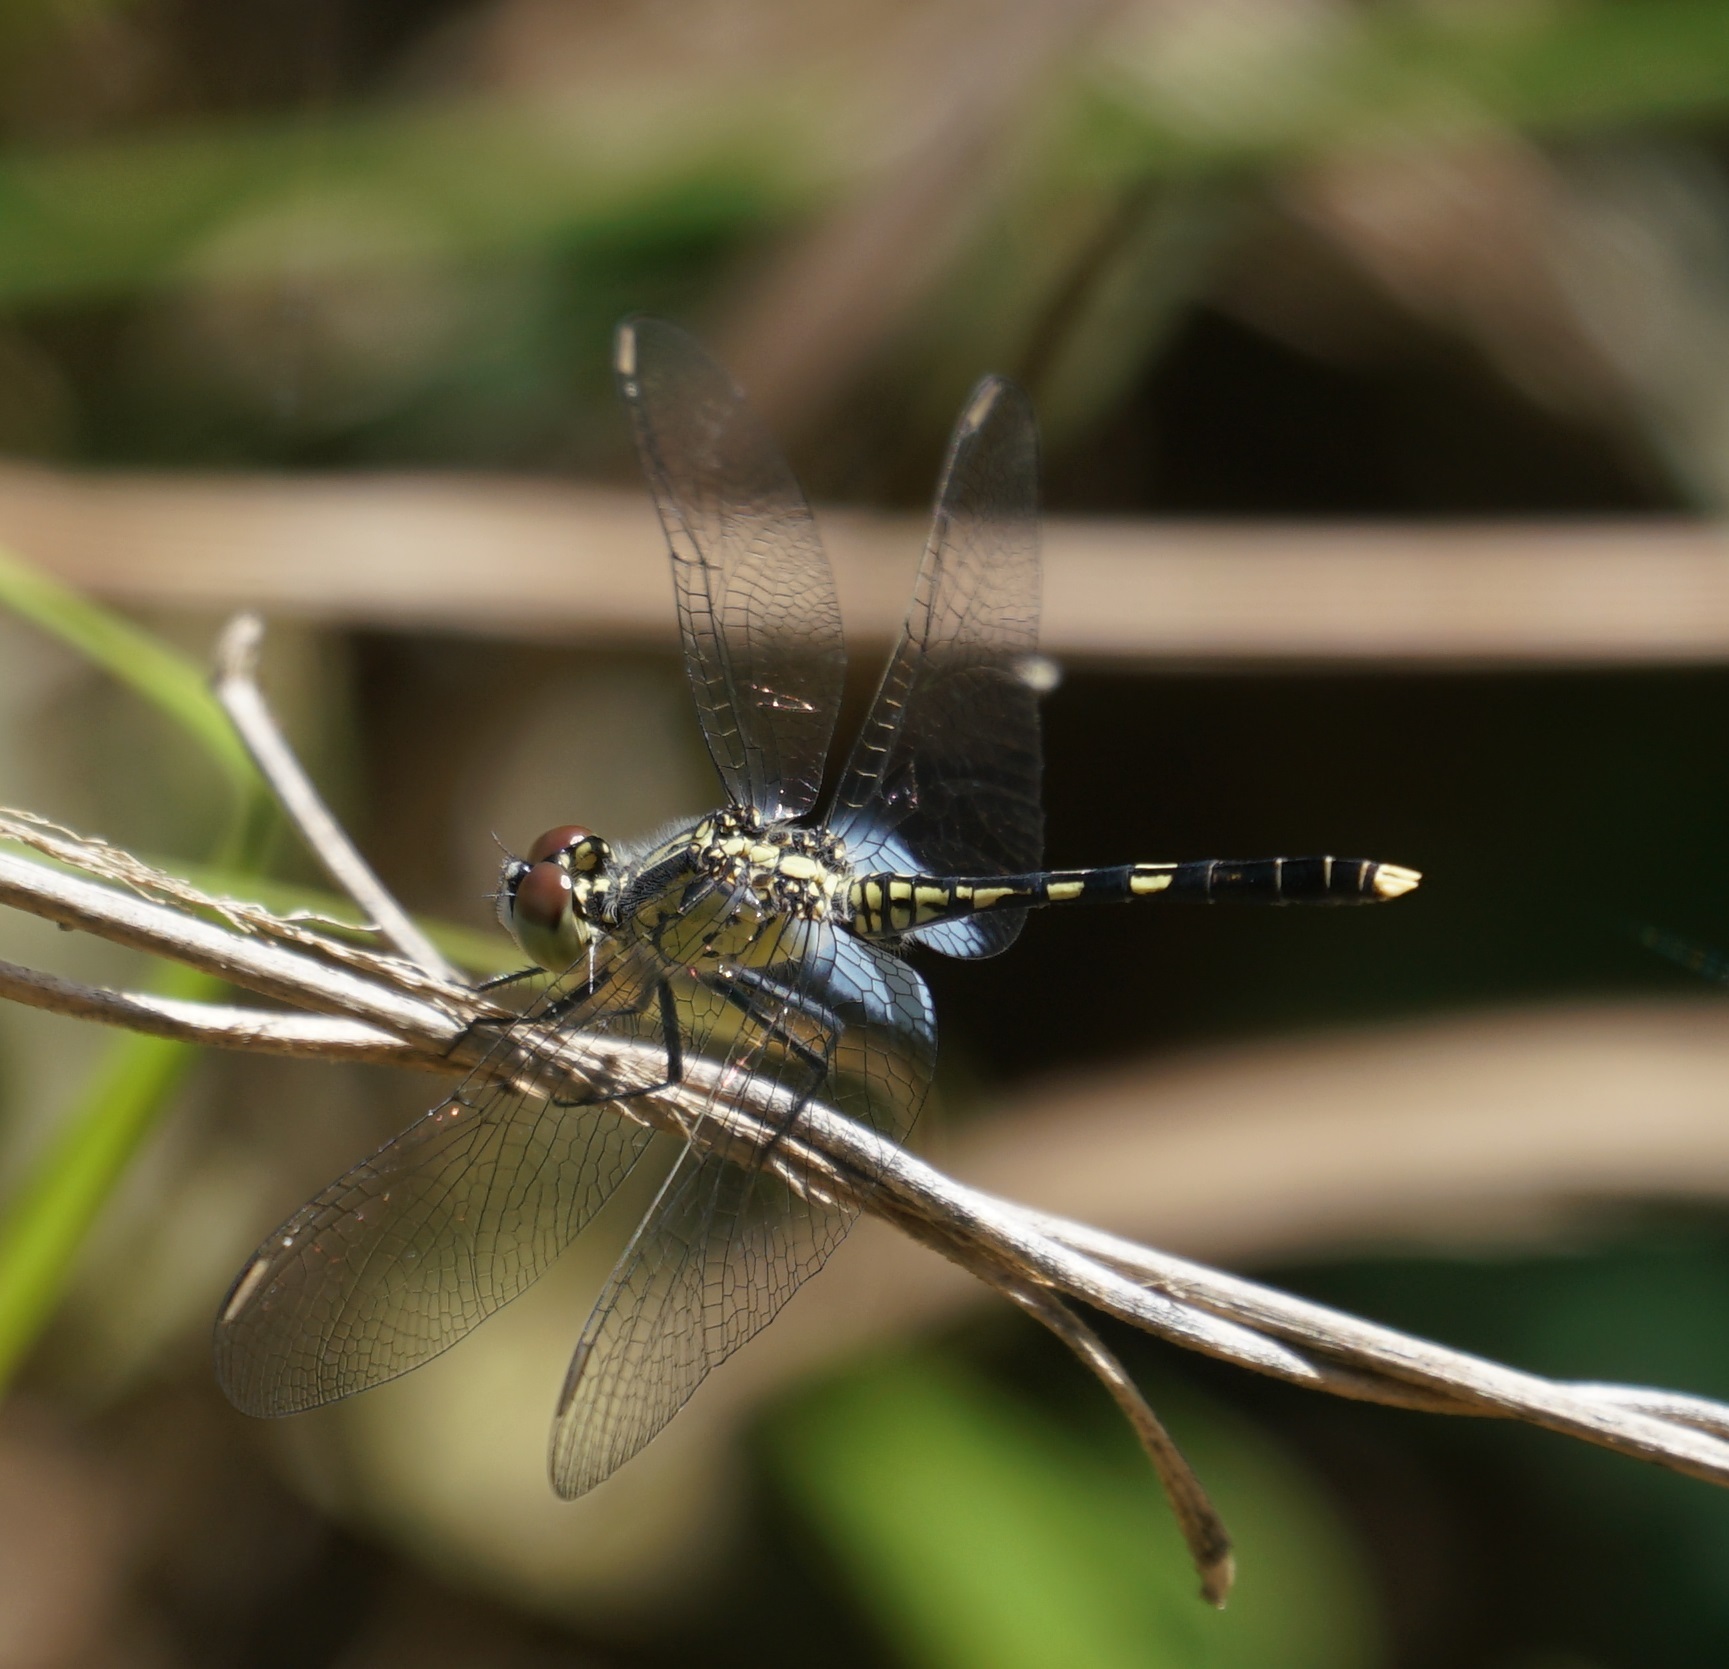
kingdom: Animalia
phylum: Arthropoda
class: Insecta
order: Odonata
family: Libellulidae
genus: Diplacodes
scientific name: Diplacodes trivialis
